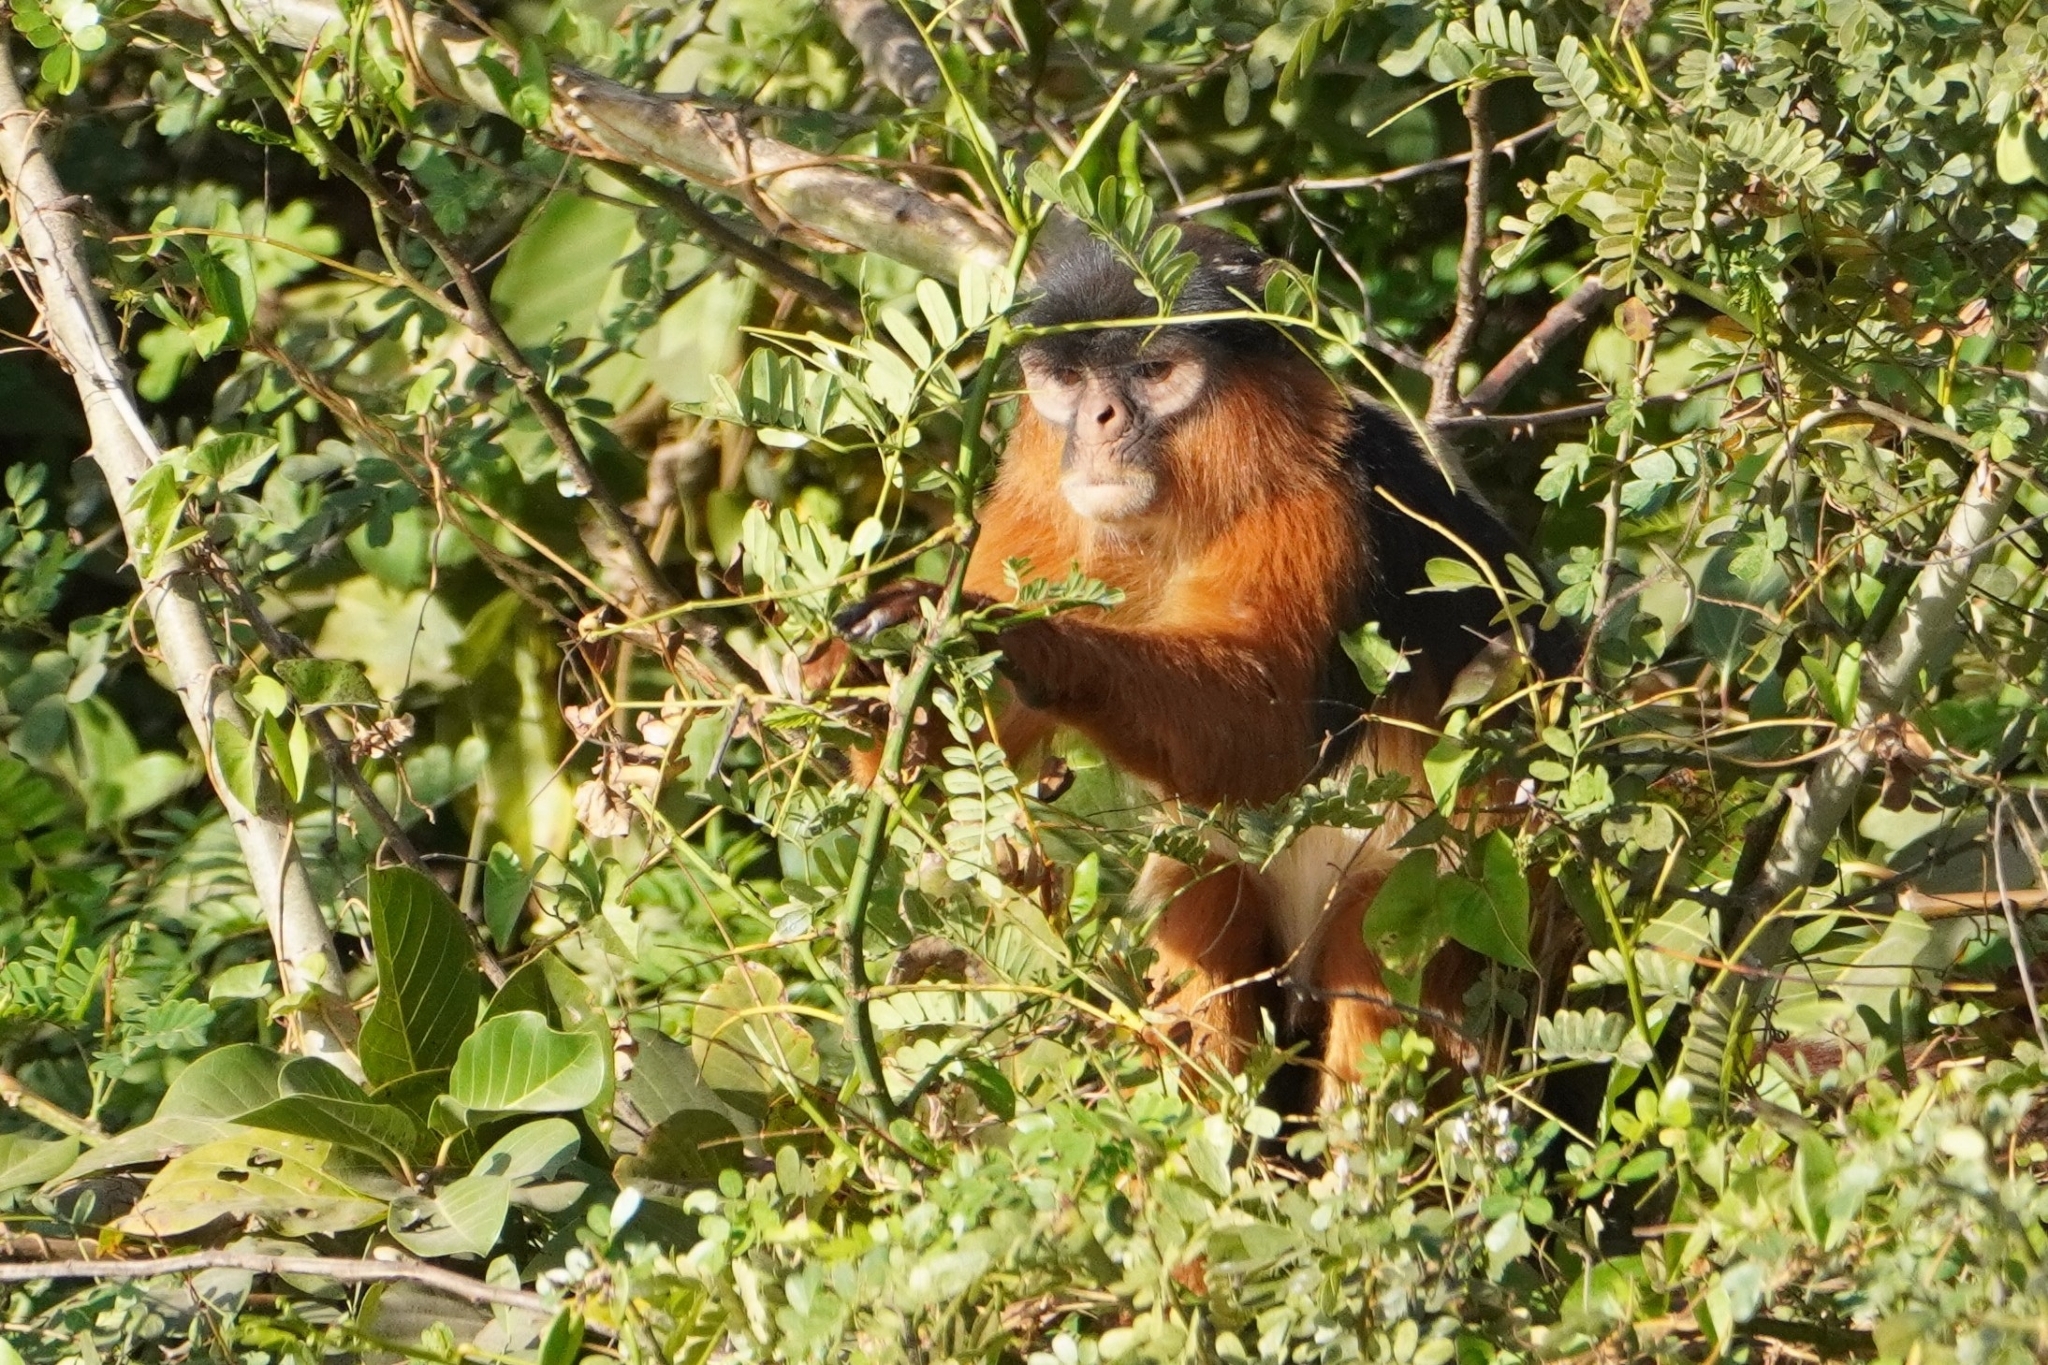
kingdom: Animalia
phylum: Chordata
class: Mammalia
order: Primates
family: Cercopithecidae
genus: Piliocolobus
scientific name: Piliocolobus badius
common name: Western red colobus
